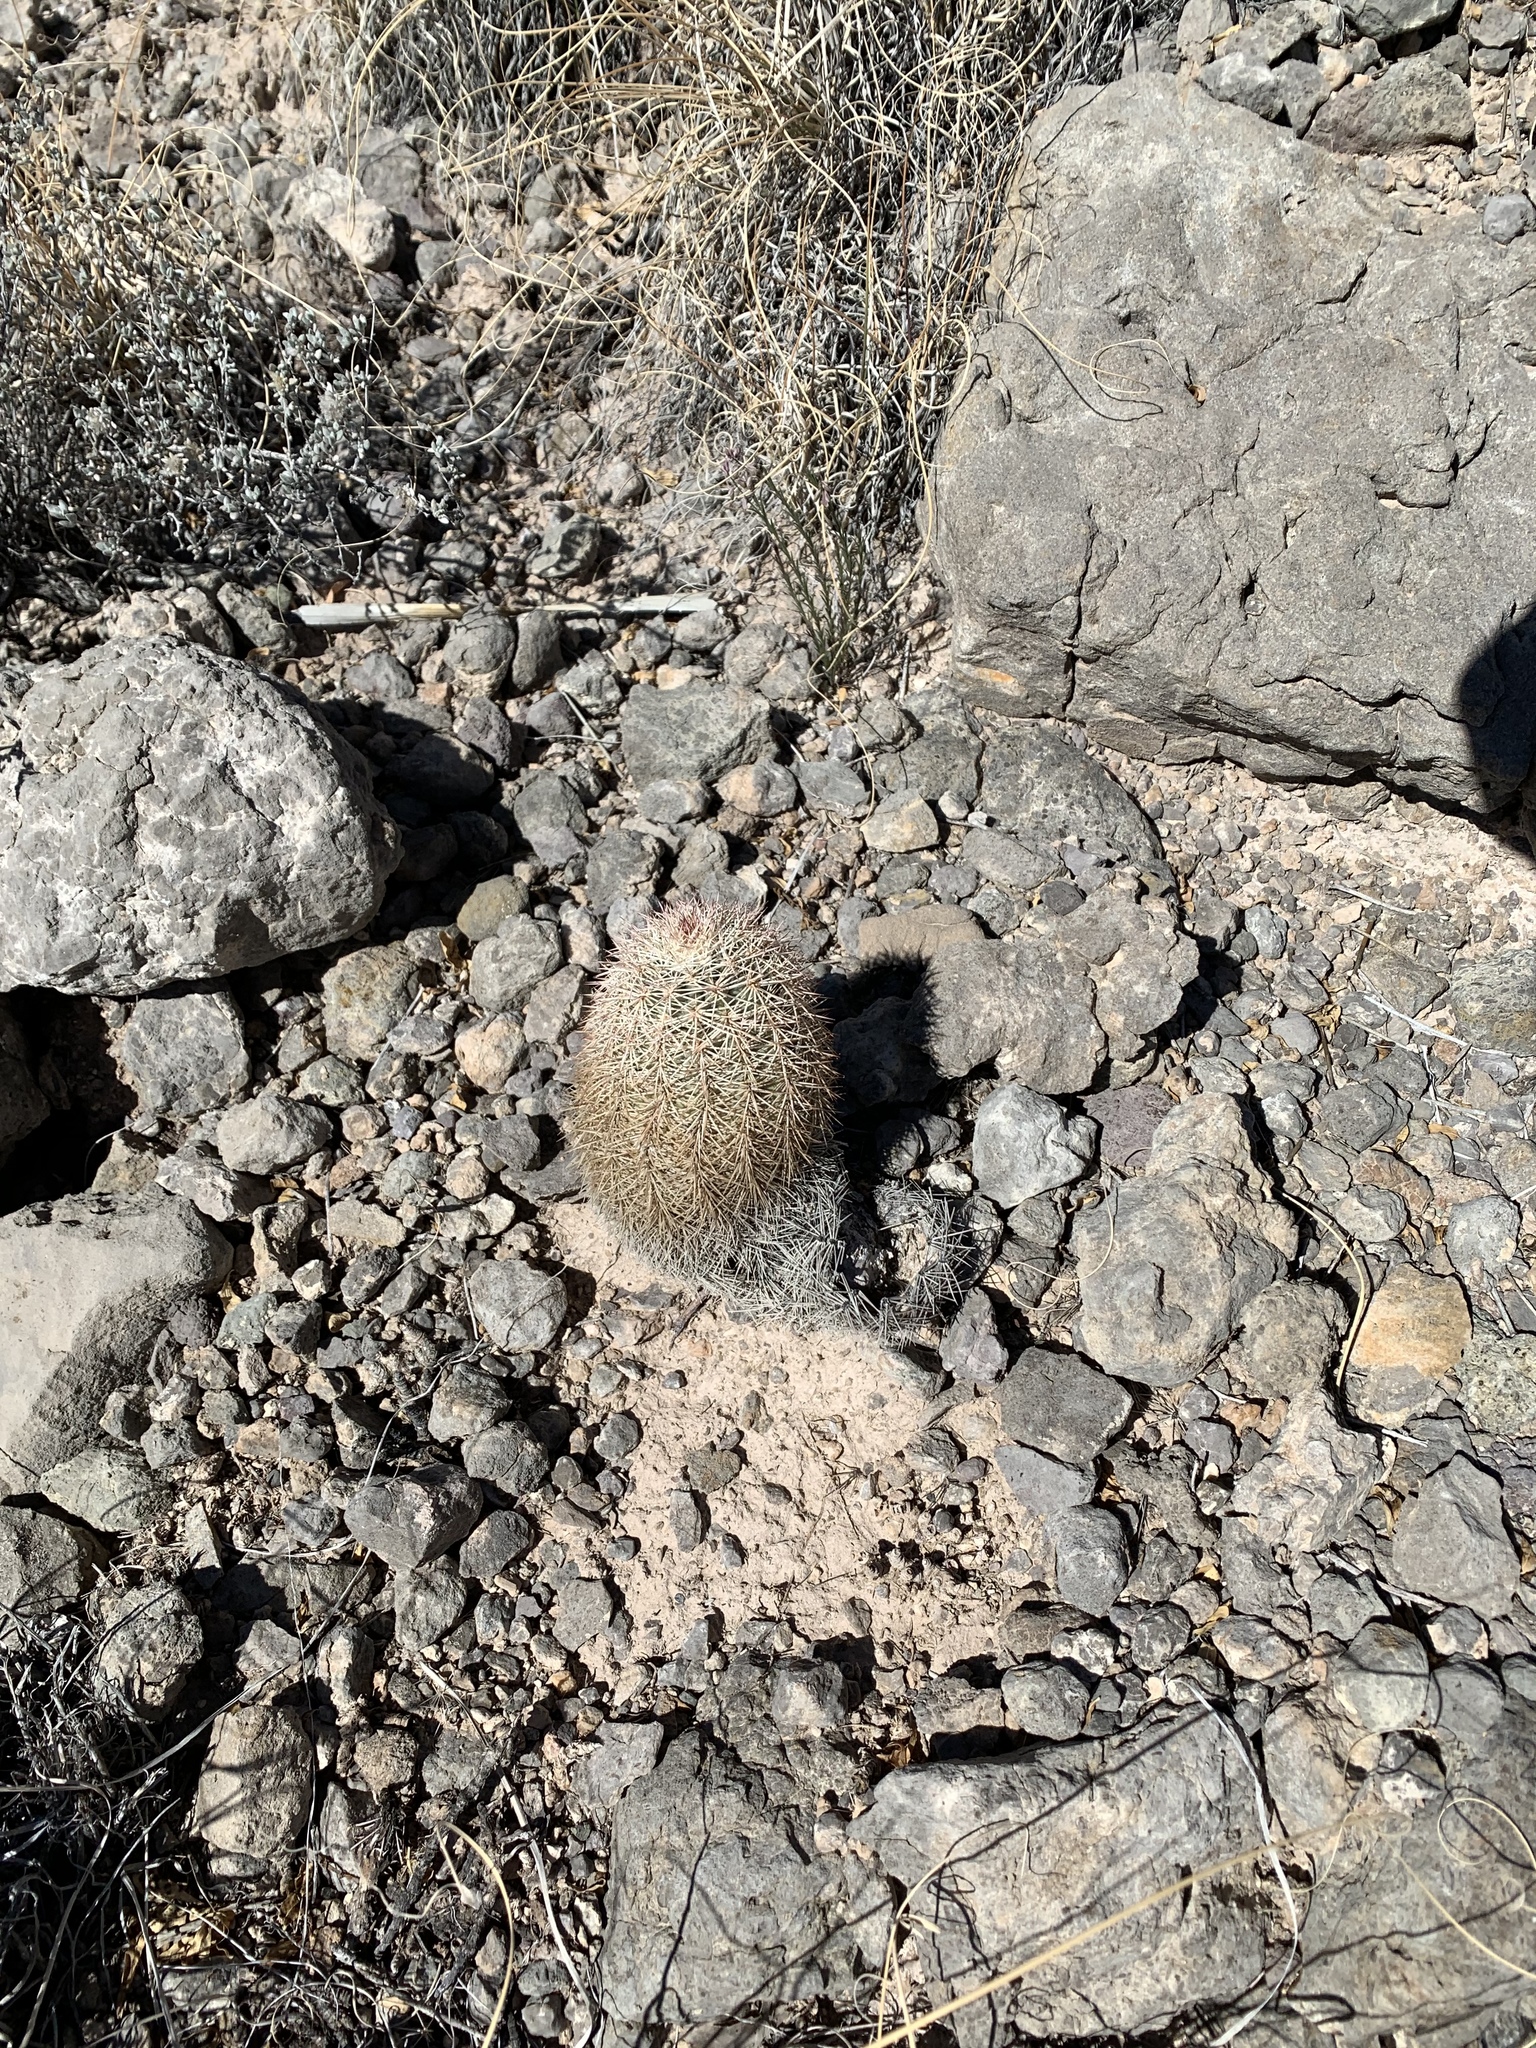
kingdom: Plantae
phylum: Tracheophyta
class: Magnoliopsida
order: Caryophyllales
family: Cactaceae
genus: Echinocereus
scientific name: Echinocereus dasyacanthus
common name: Spiny hedgehog cactus
